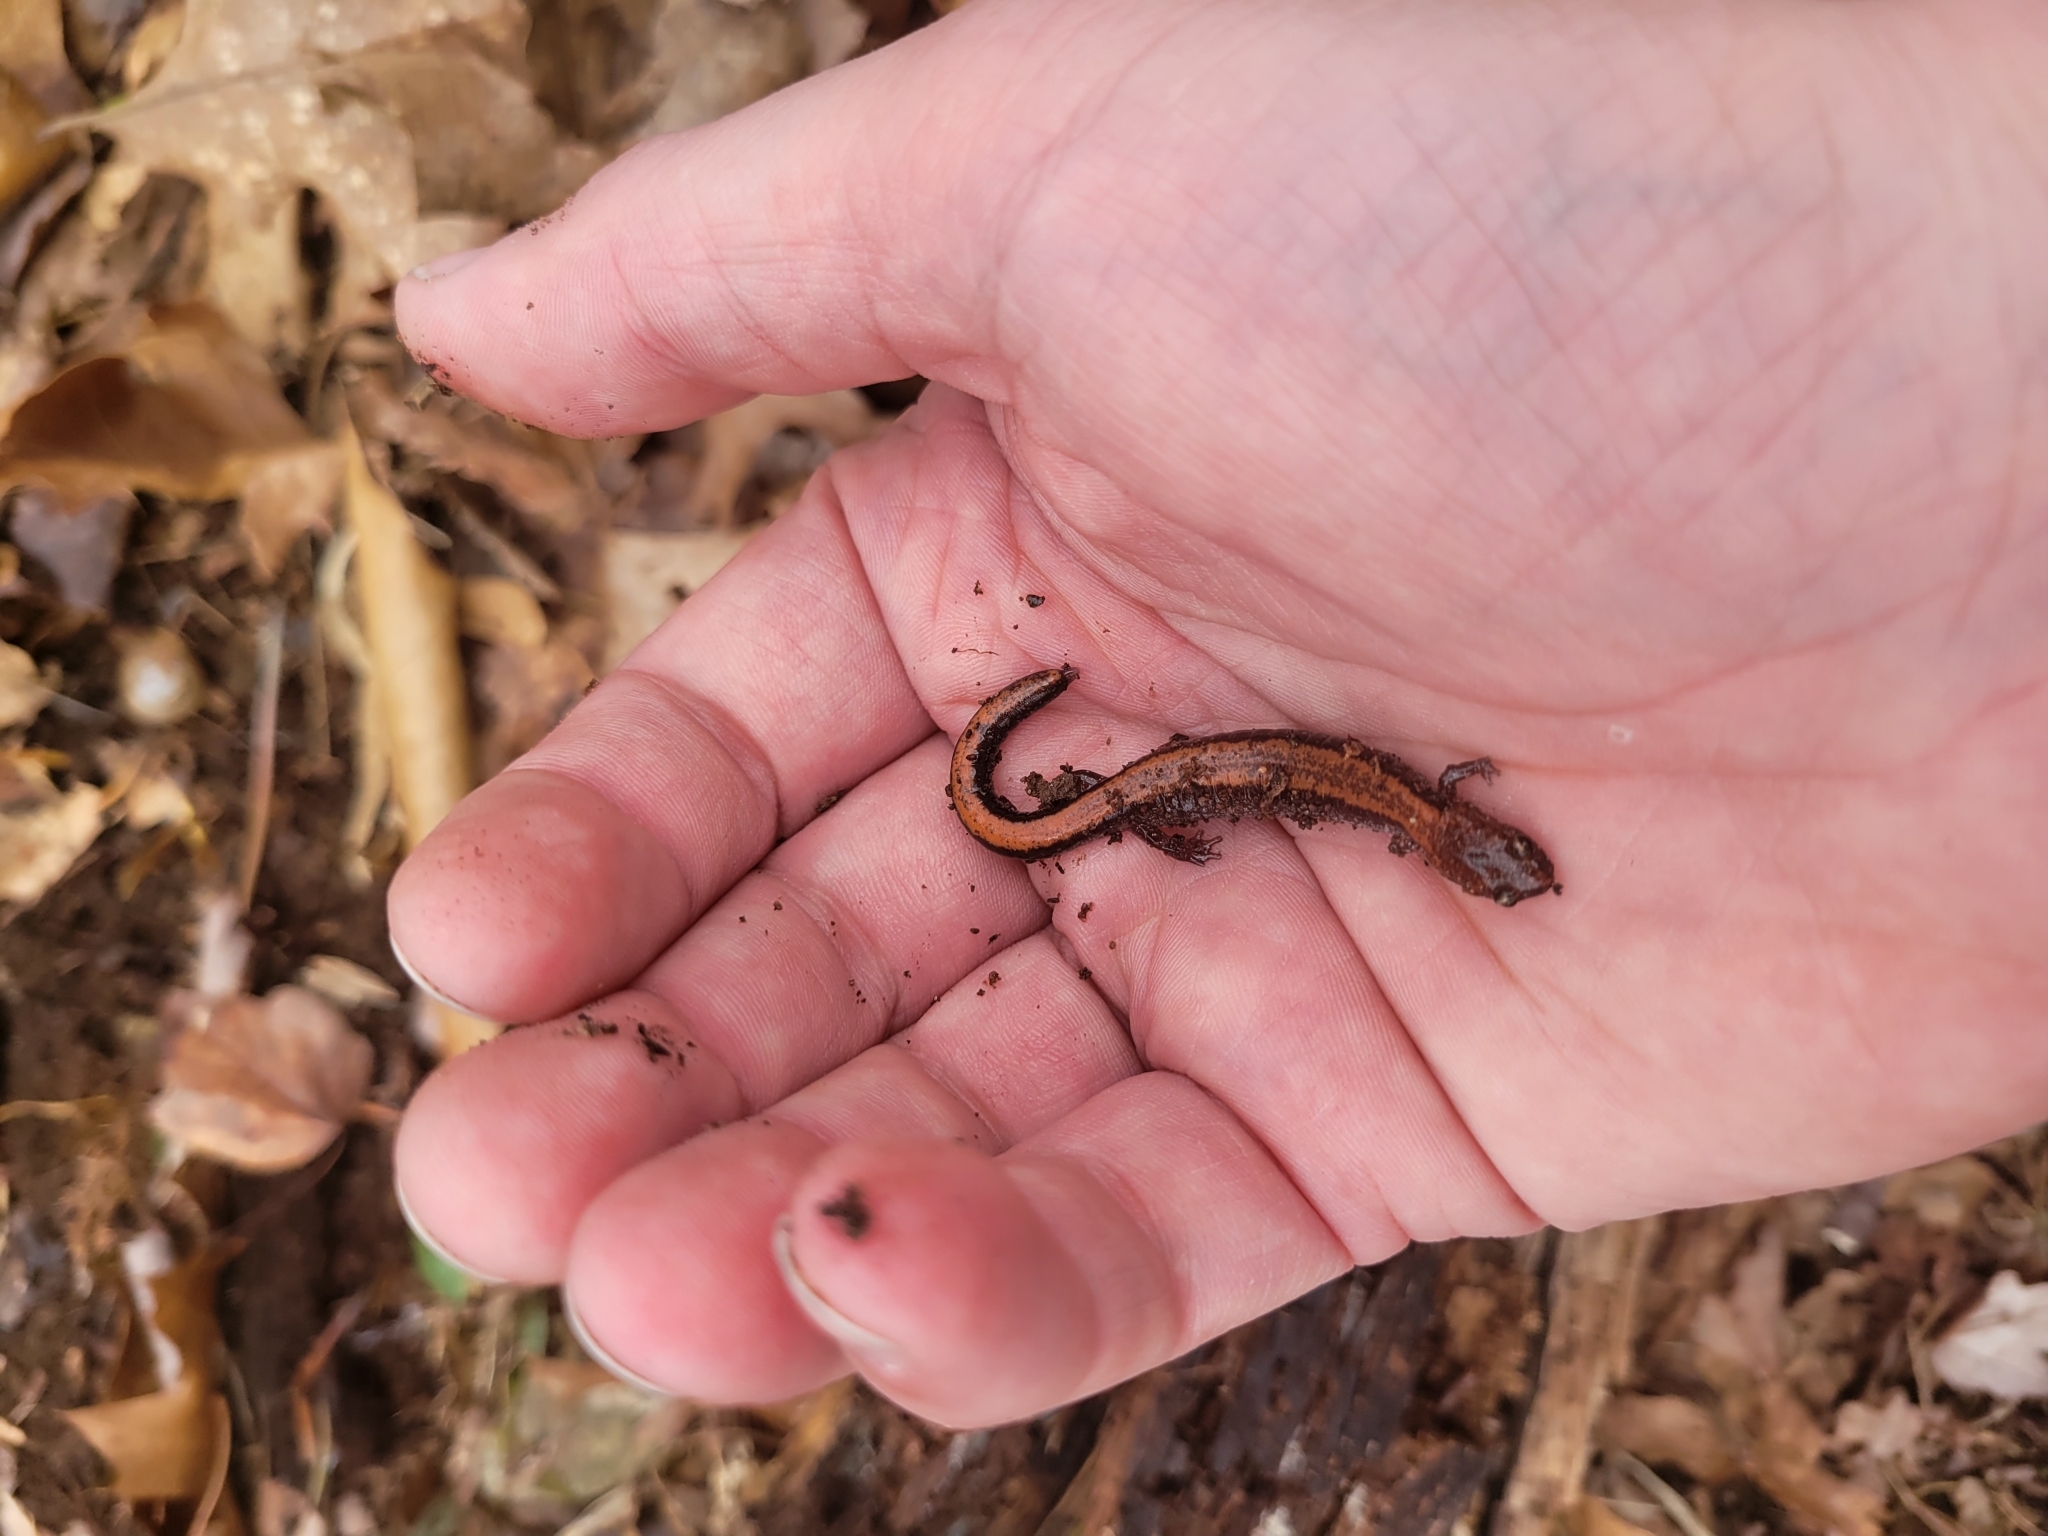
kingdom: Animalia
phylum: Chordata
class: Amphibia
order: Caudata
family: Plethodontidae
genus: Plethodon
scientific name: Plethodon cinereus
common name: Redback salamander
